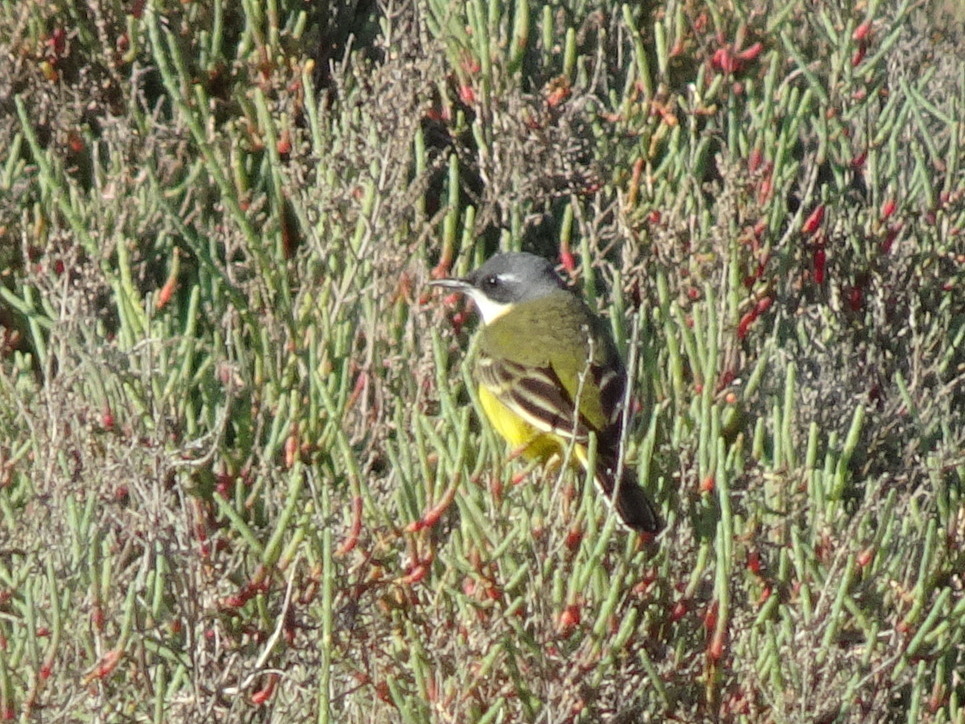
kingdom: Animalia
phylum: Chordata
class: Aves
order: Passeriformes
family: Motacillidae
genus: Motacilla
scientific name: Motacilla flava
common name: Western yellow wagtail
